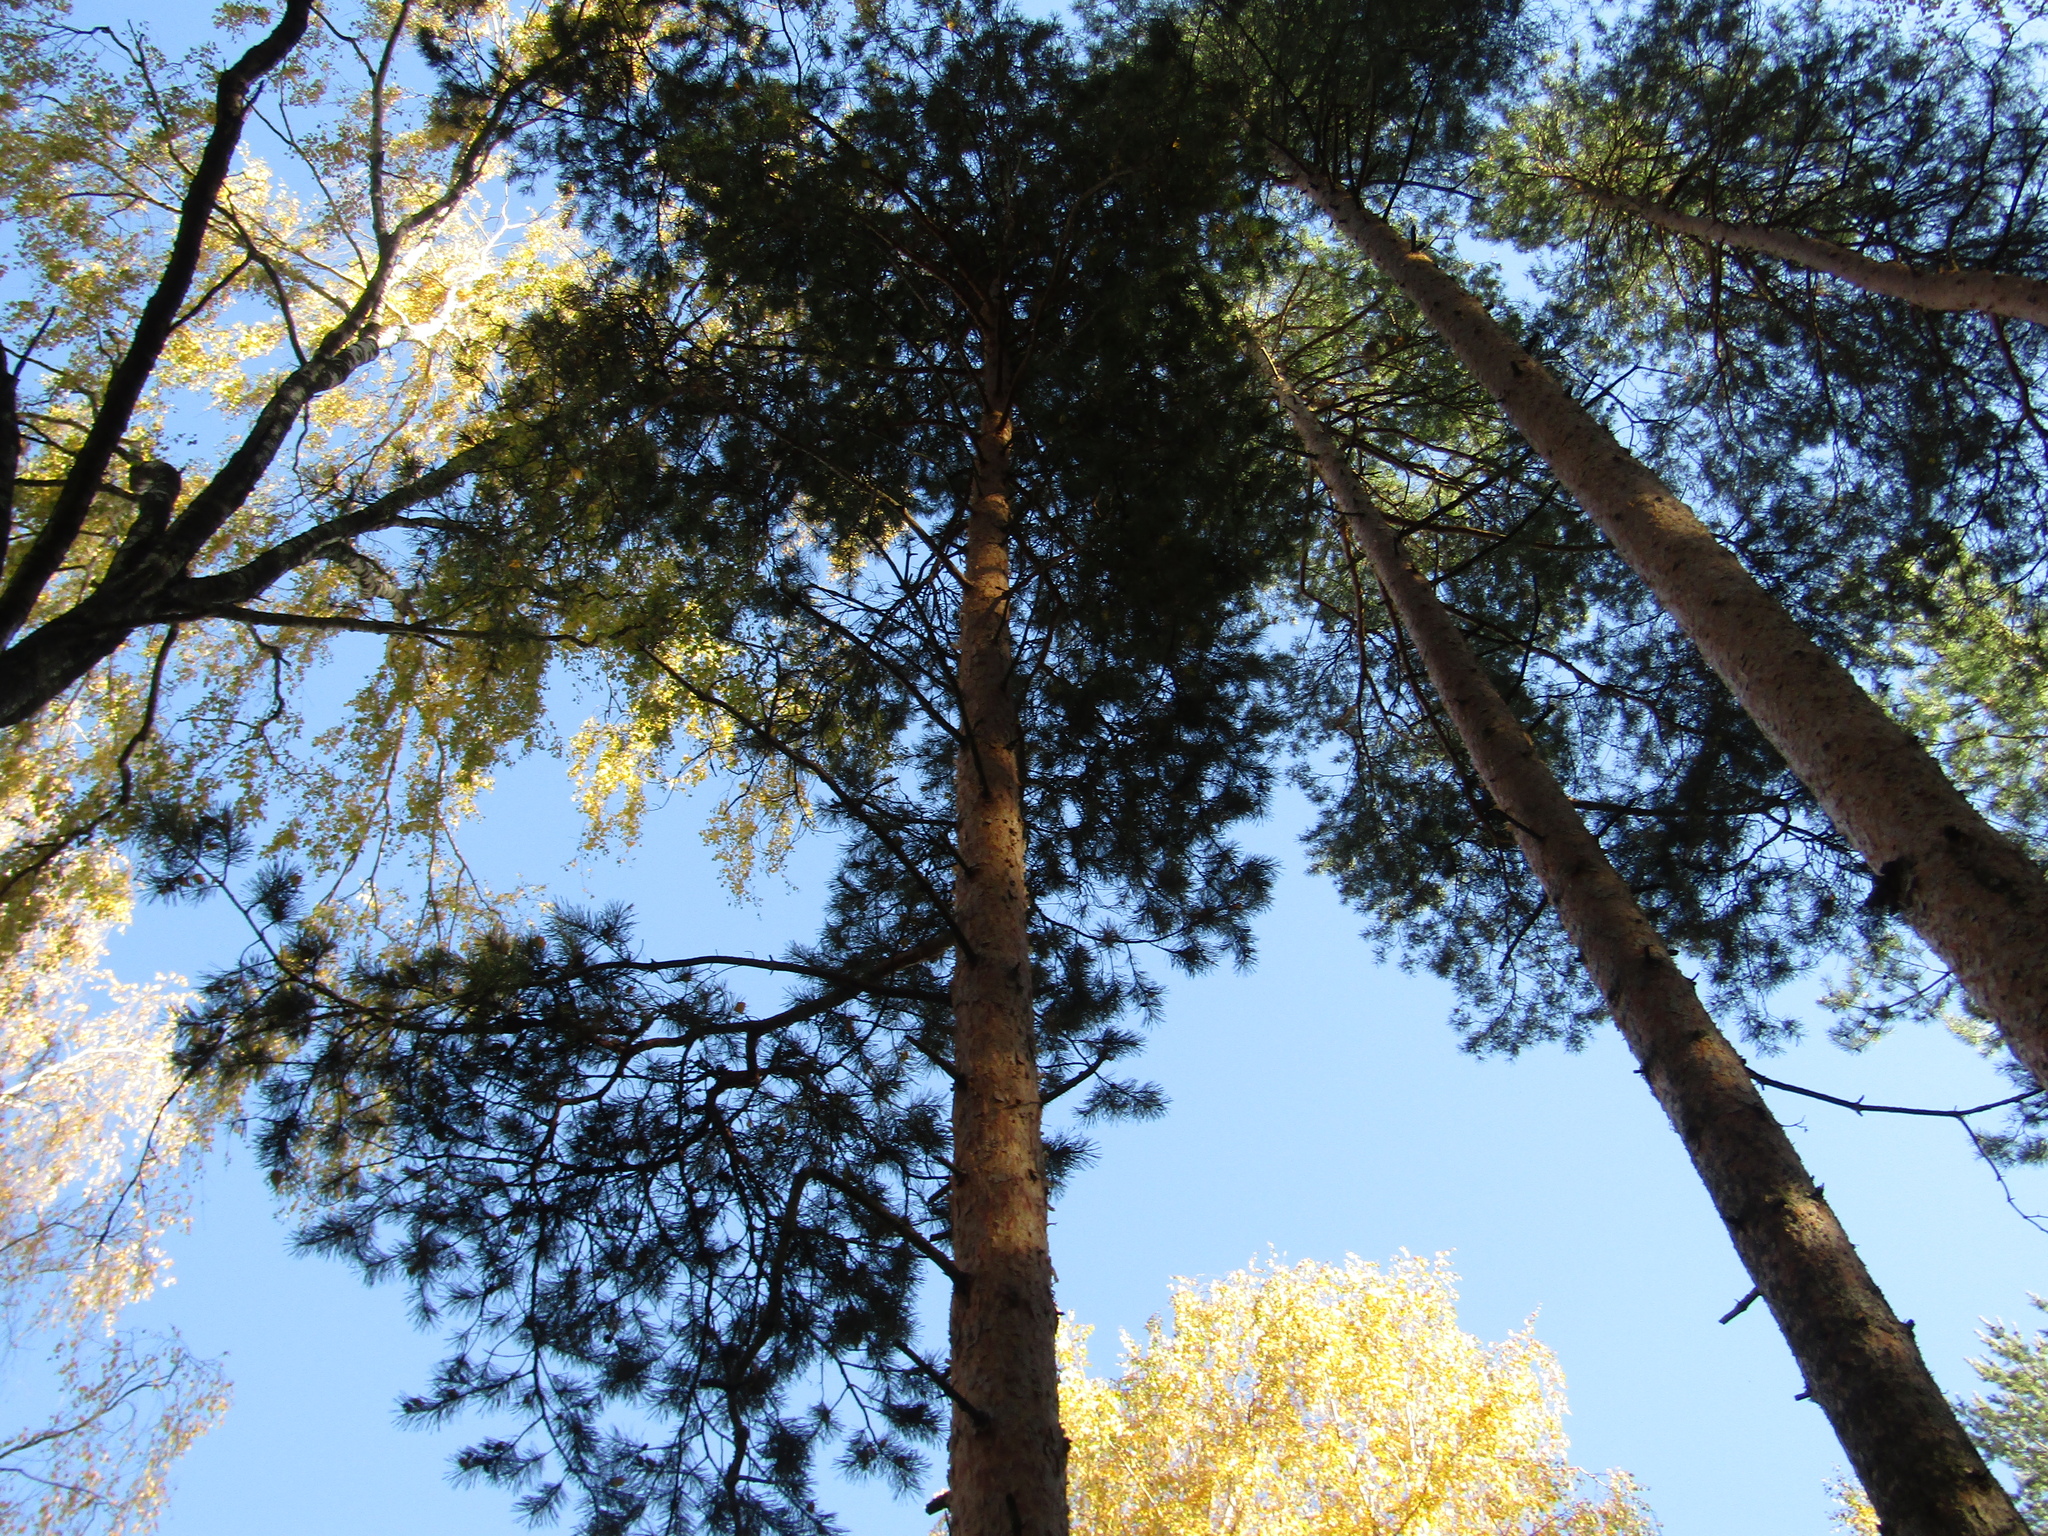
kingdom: Plantae
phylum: Tracheophyta
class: Pinopsida
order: Pinales
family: Pinaceae
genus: Pinus
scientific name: Pinus sylvestris
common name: Scots pine
